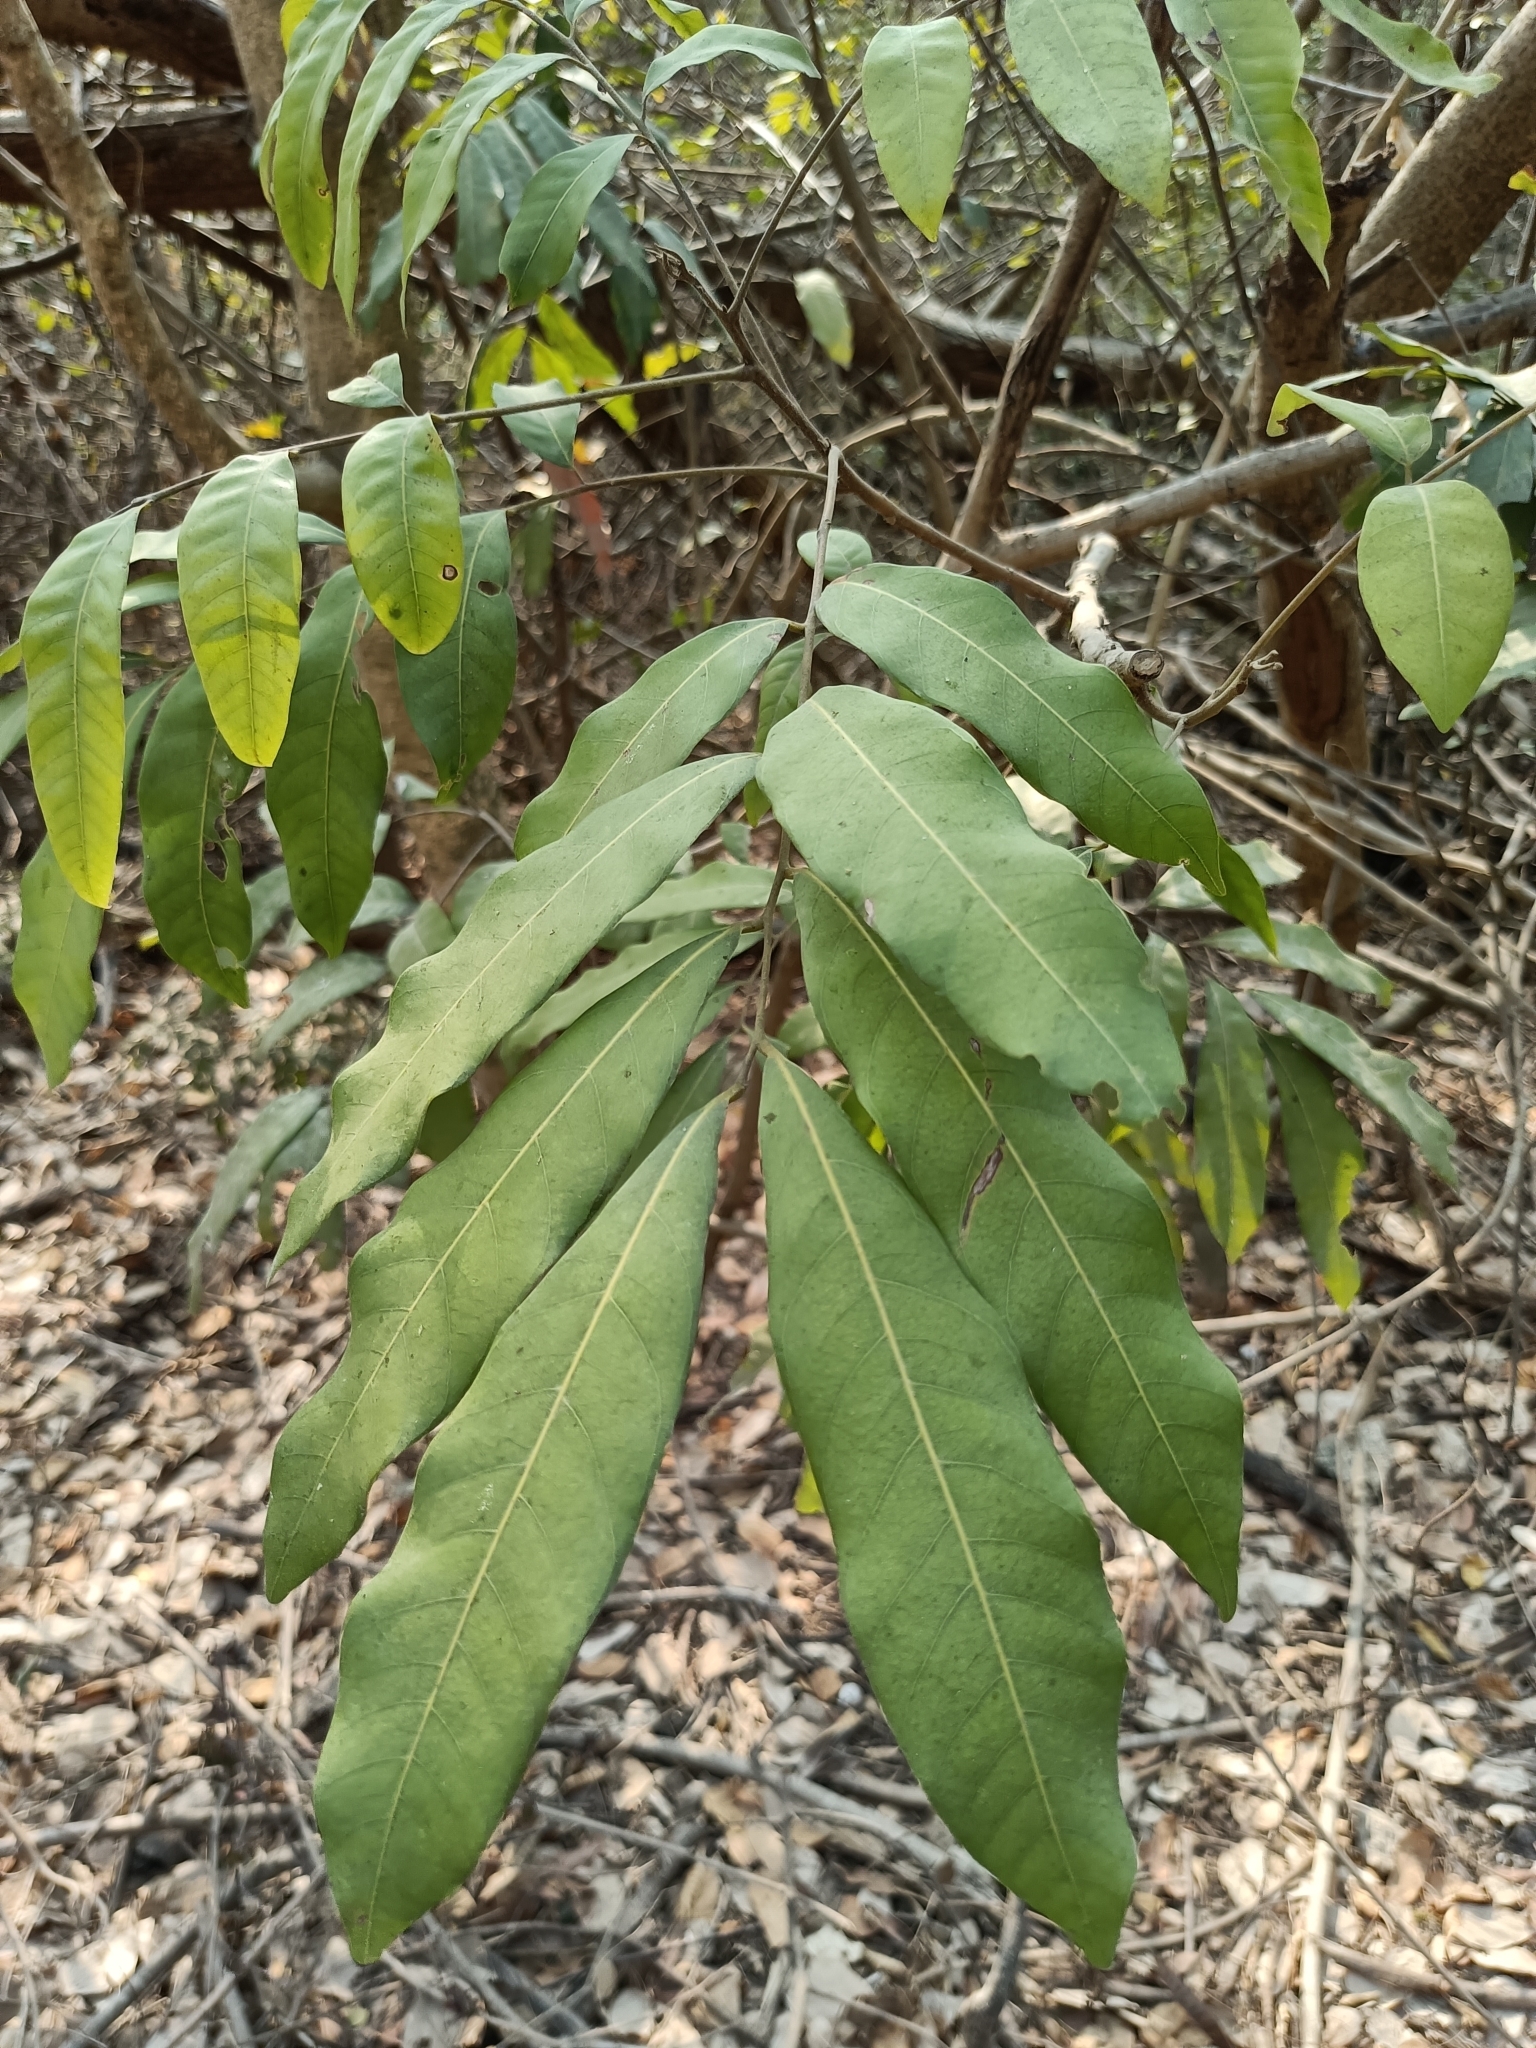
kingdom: Plantae
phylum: Tracheophyta
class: Magnoliopsida
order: Sapindales
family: Sapindaceae
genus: Dimocarpus
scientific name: Dimocarpus longan
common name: Longan
